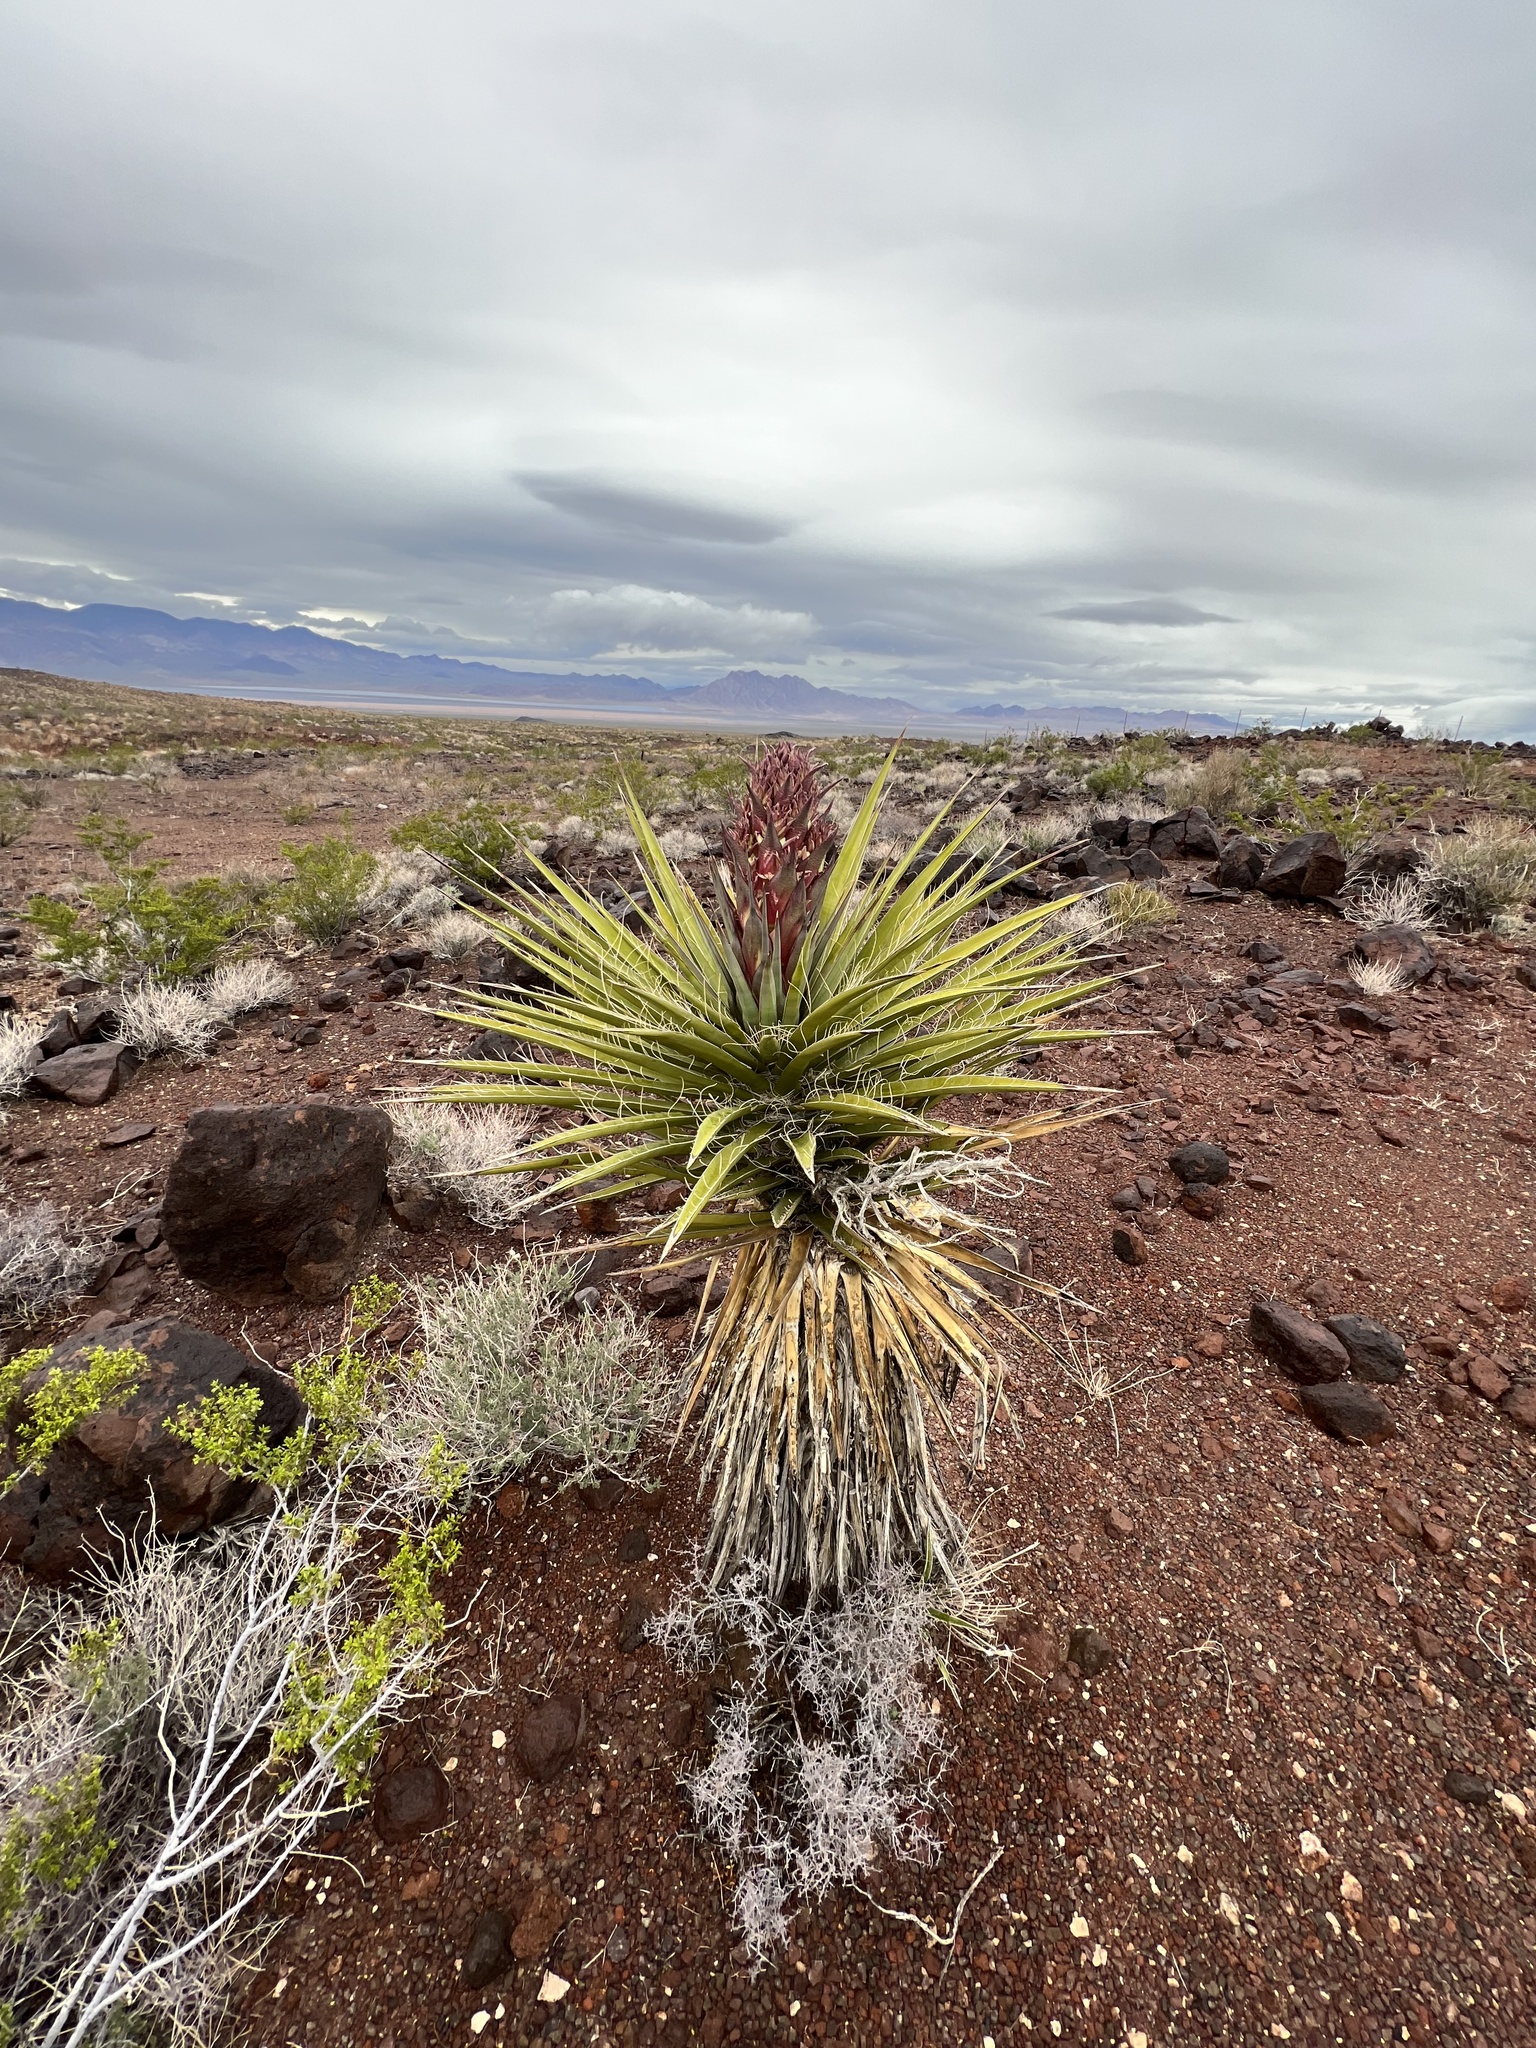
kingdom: Plantae
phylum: Tracheophyta
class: Liliopsida
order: Asparagales
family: Asparagaceae
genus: Yucca
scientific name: Yucca schidigera
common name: Mojave yucca
